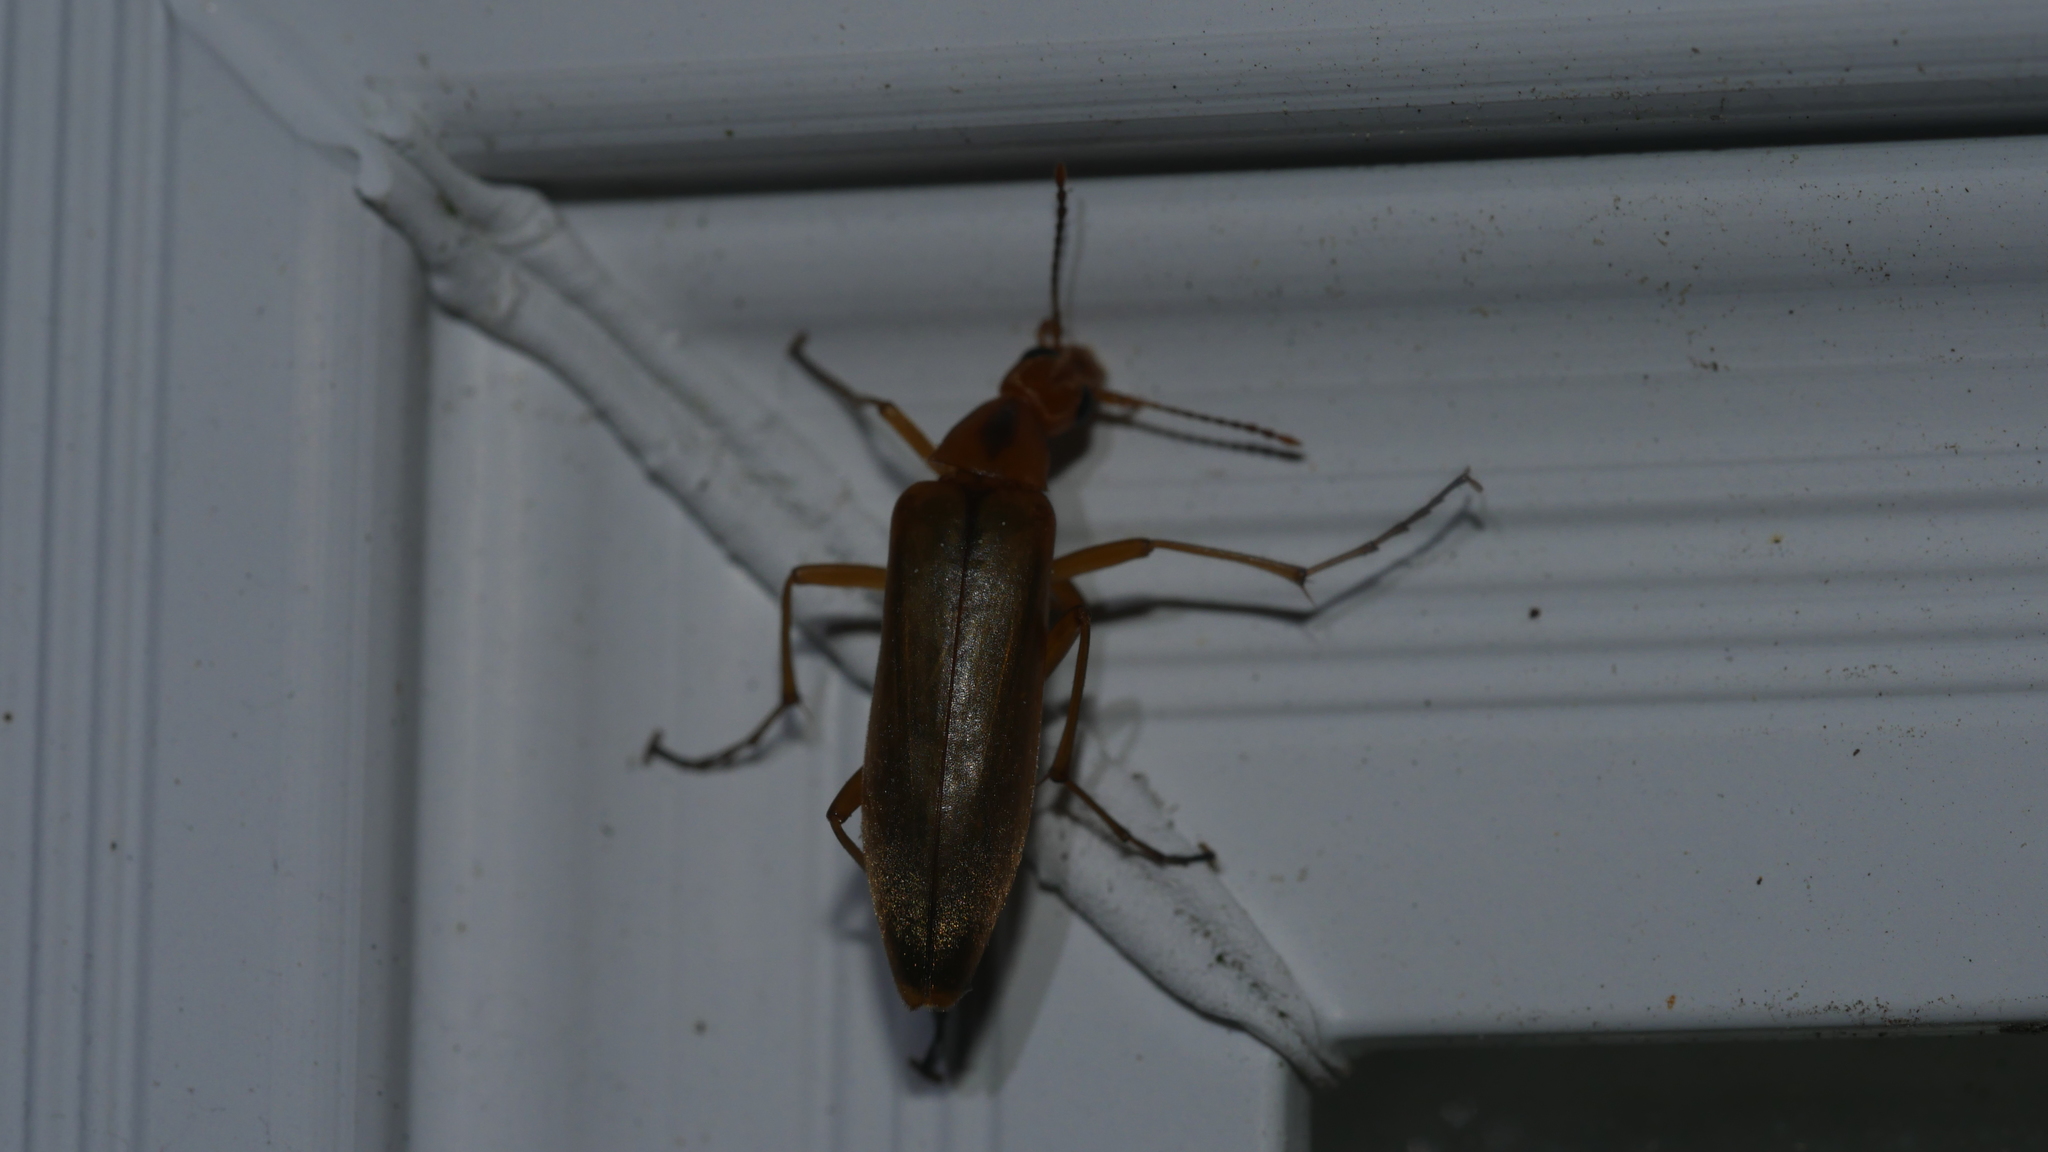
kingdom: Animalia
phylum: Arthropoda
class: Insecta
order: Coleoptera
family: Stenotrachelidae
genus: Cephaloon
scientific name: Cephaloon lepturides
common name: False leptura beetle
